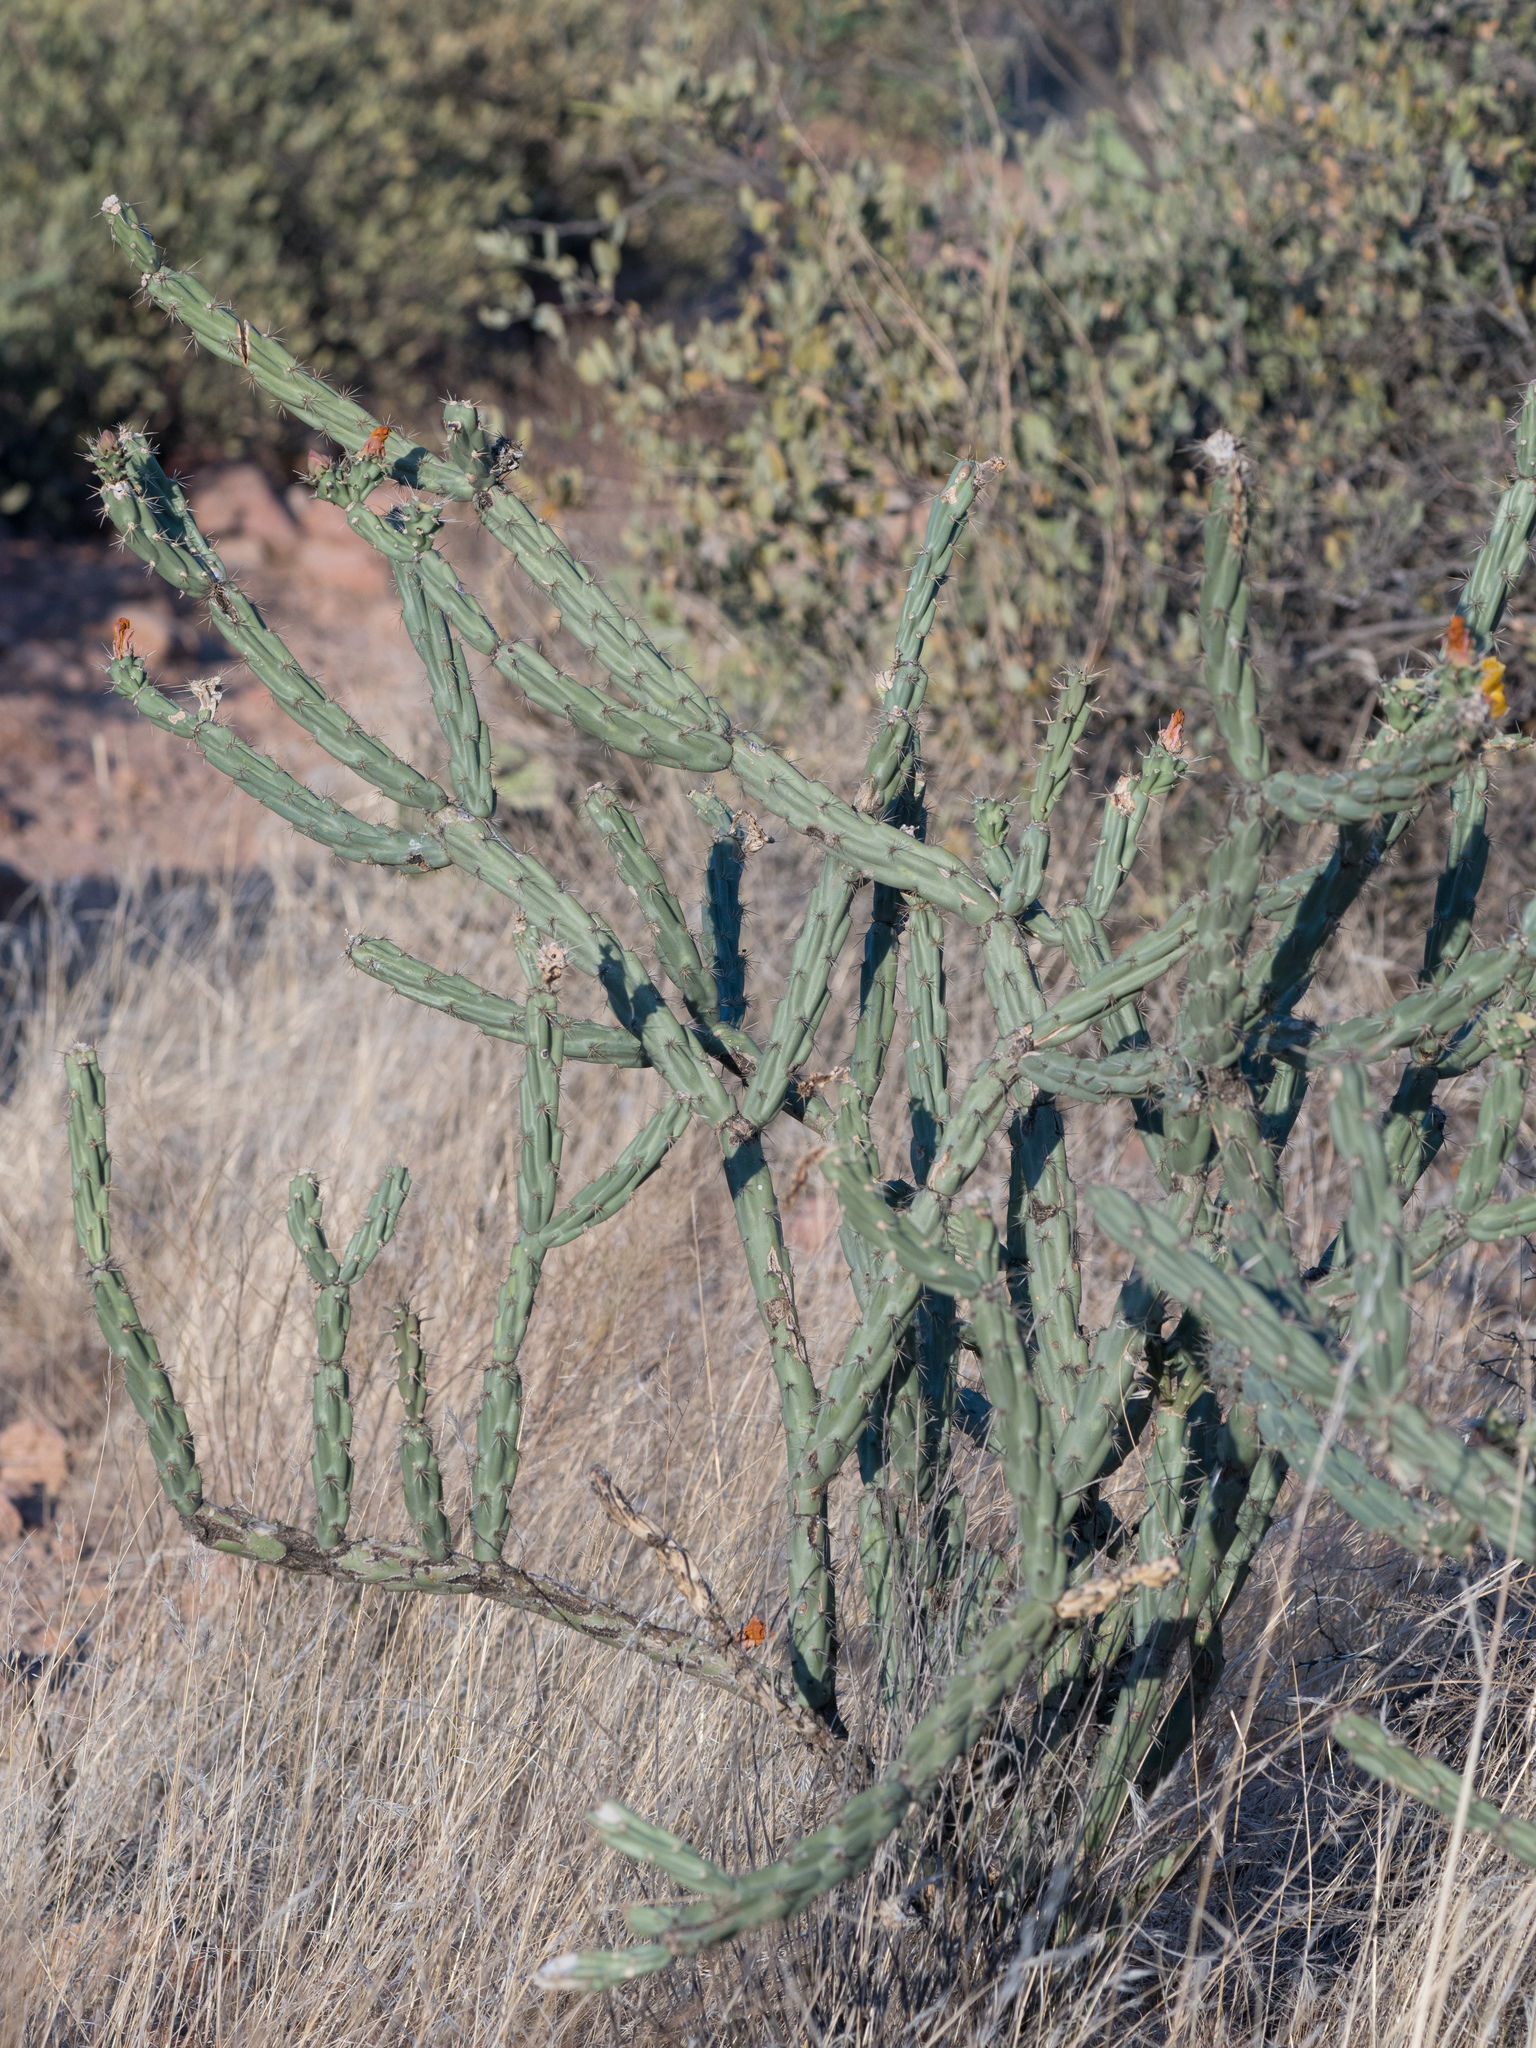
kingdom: Plantae
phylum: Tracheophyta
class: Magnoliopsida
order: Caryophyllales
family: Cactaceae
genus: Cylindropuntia
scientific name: Cylindropuntia acanthocarpa
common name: Buckhorn cholla
